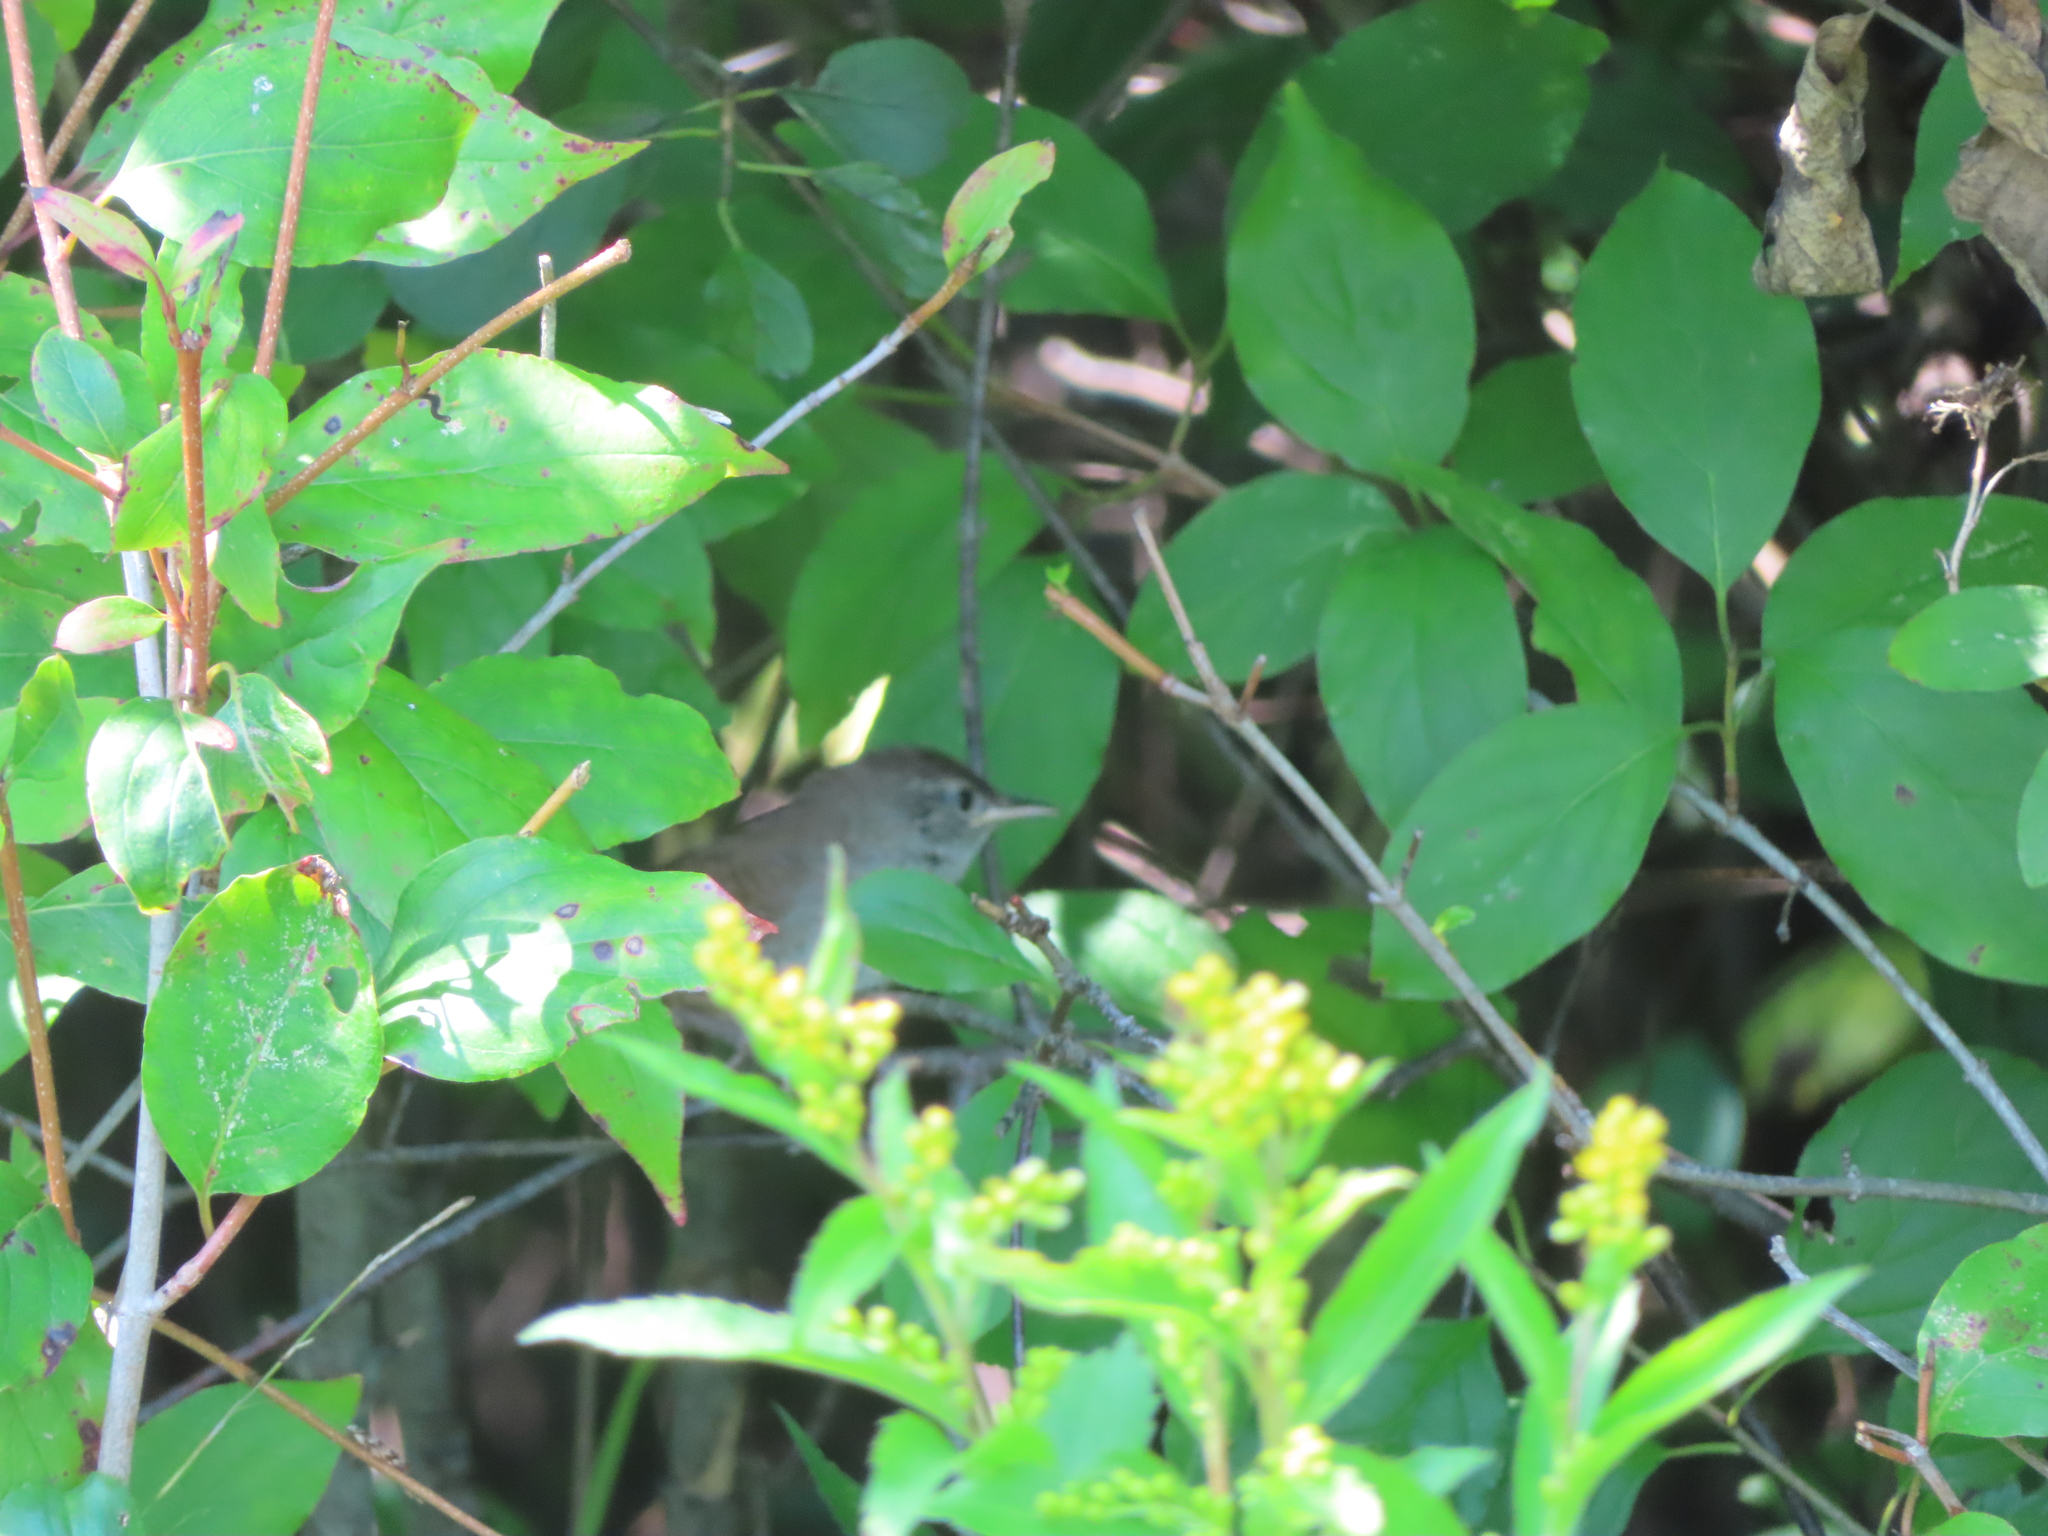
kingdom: Animalia
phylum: Chordata
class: Aves
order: Passeriformes
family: Troglodytidae
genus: Troglodytes
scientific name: Troglodytes aedon
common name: House wren
